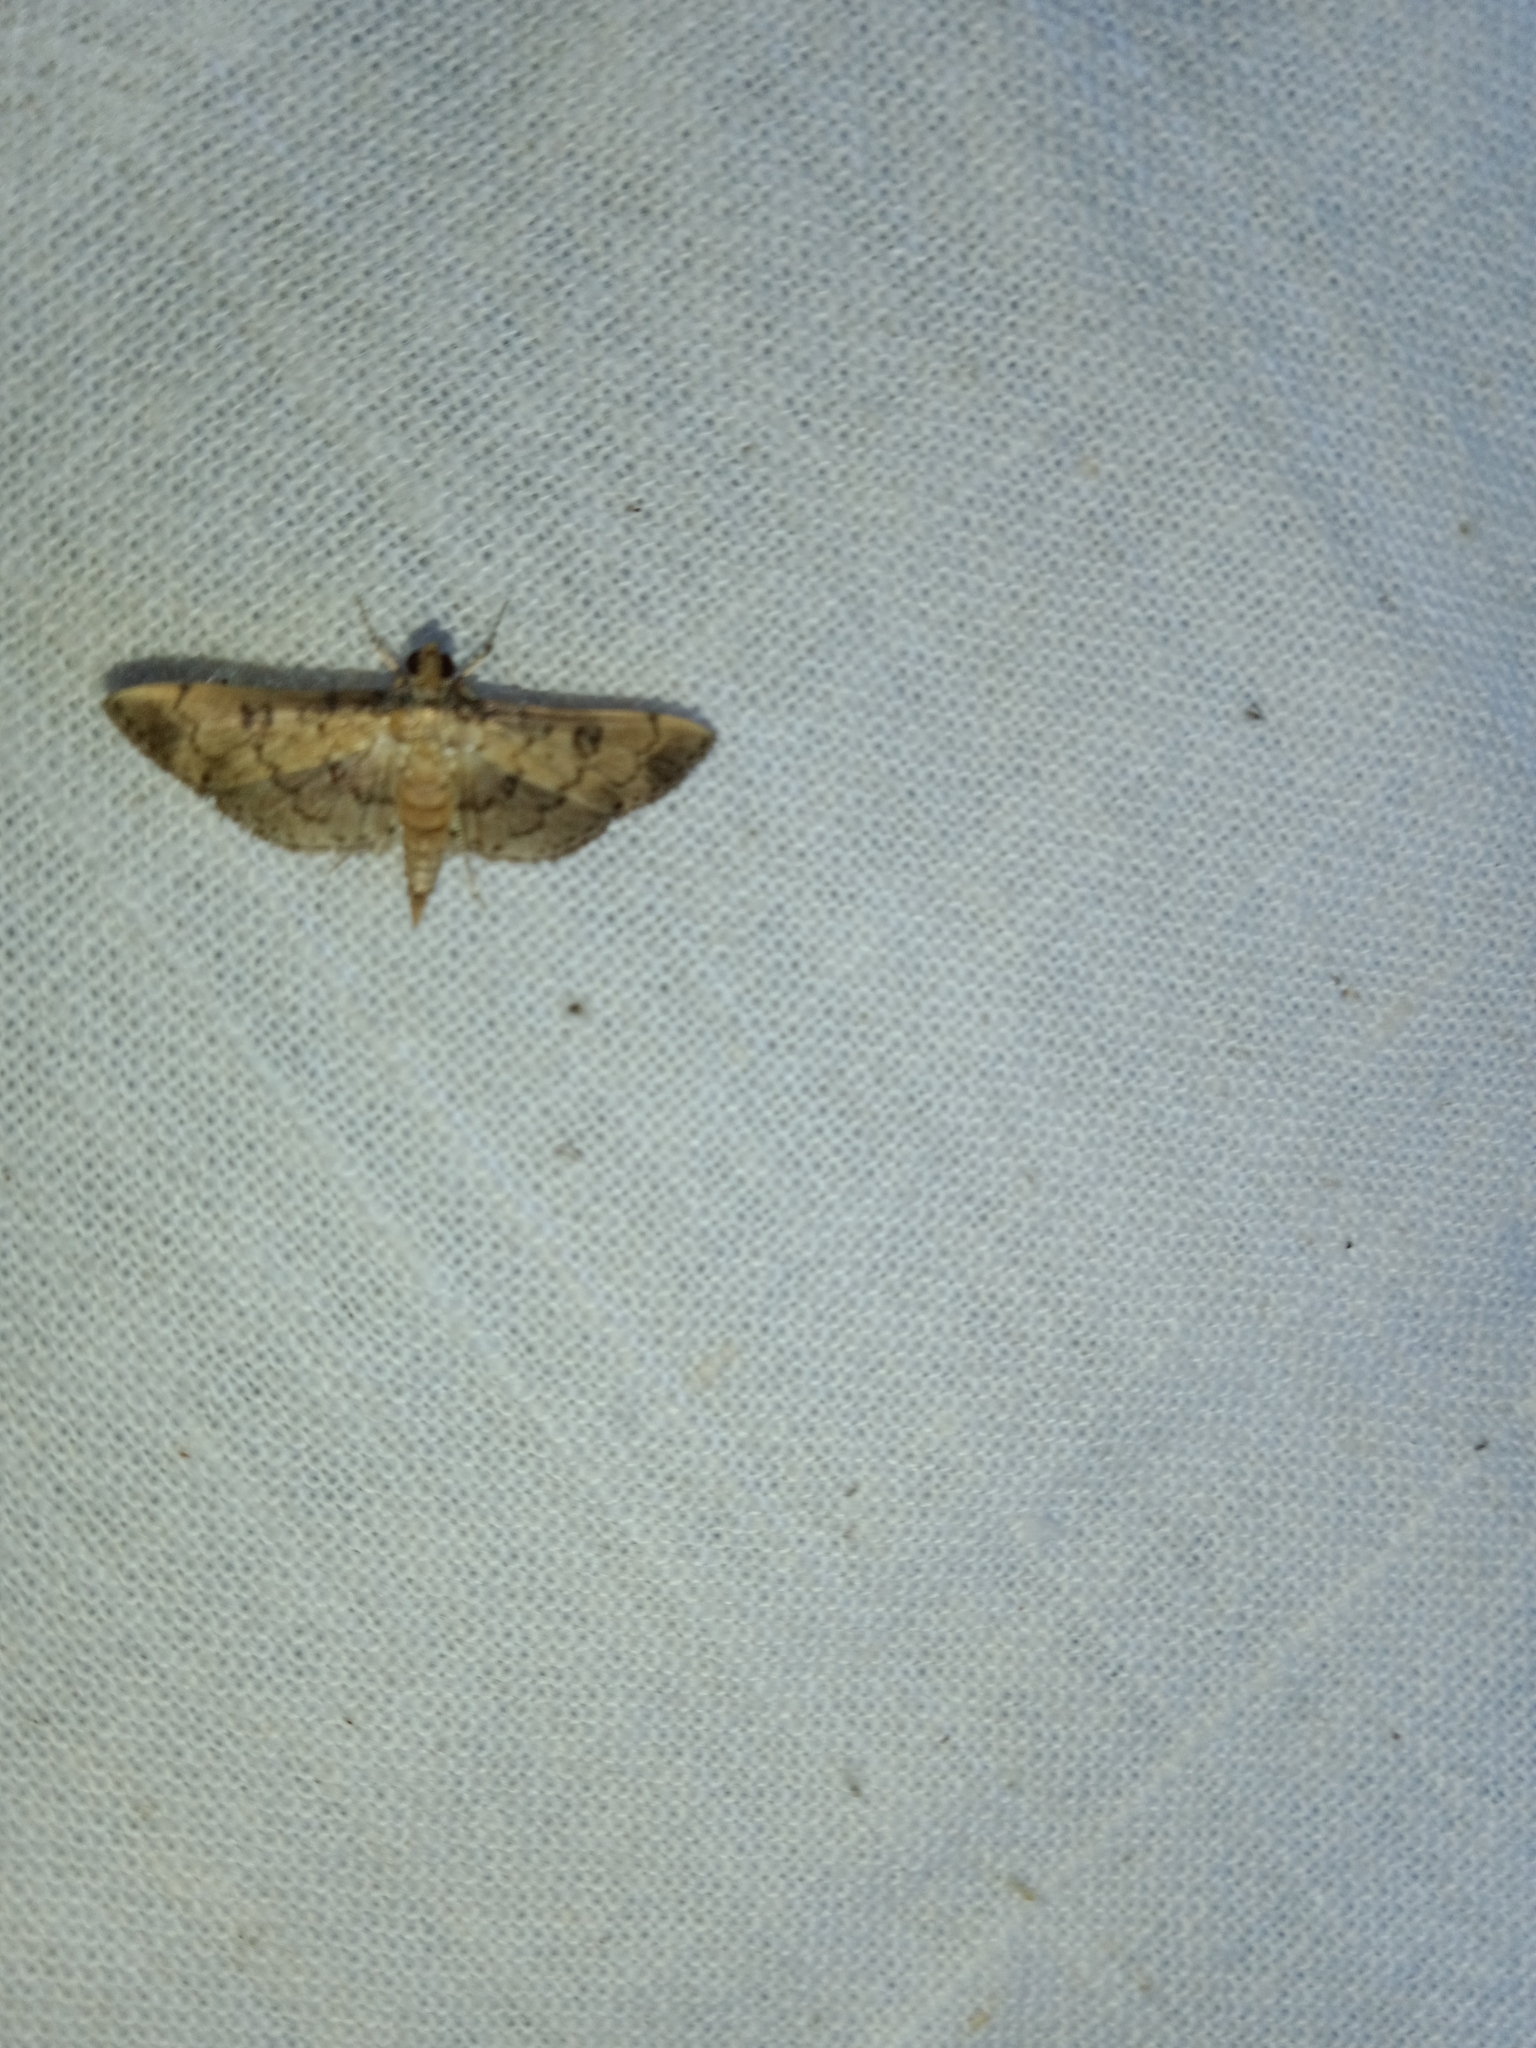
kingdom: Animalia
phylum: Arthropoda
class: Insecta
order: Lepidoptera
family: Crambidae
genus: Nacoleia
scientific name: Nacoleia charesalis
